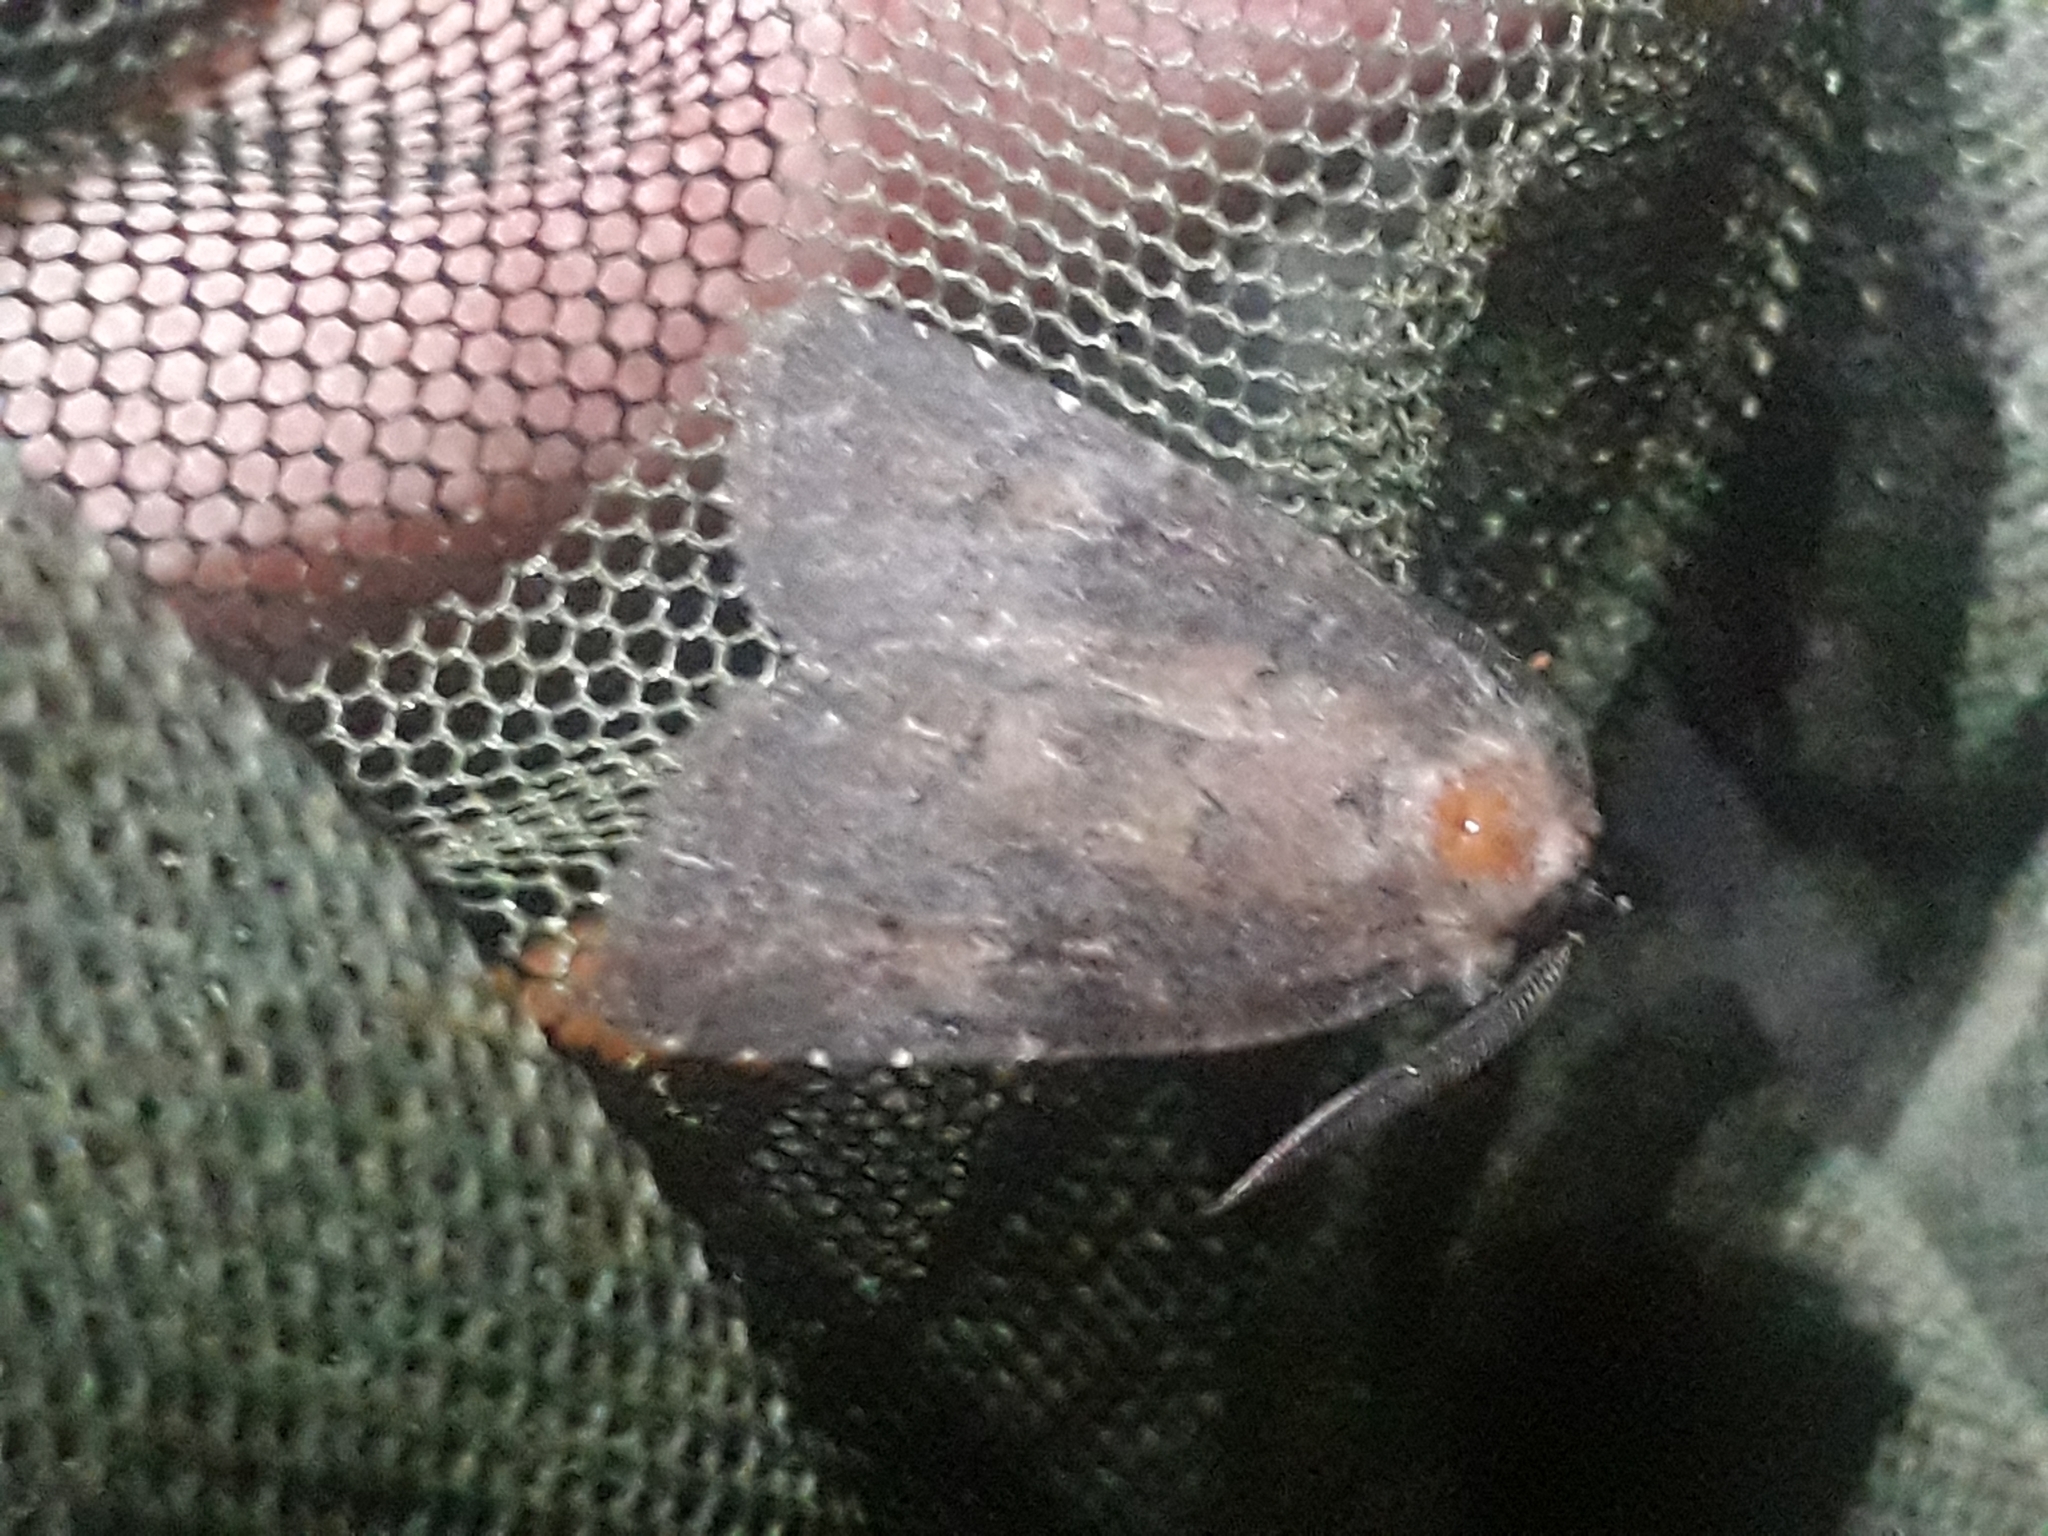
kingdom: Animalia
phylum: Arthropoda
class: Insecta
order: Lepidoptera
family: Noctuidae
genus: Charanyca
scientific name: Charanyca ferruginea
